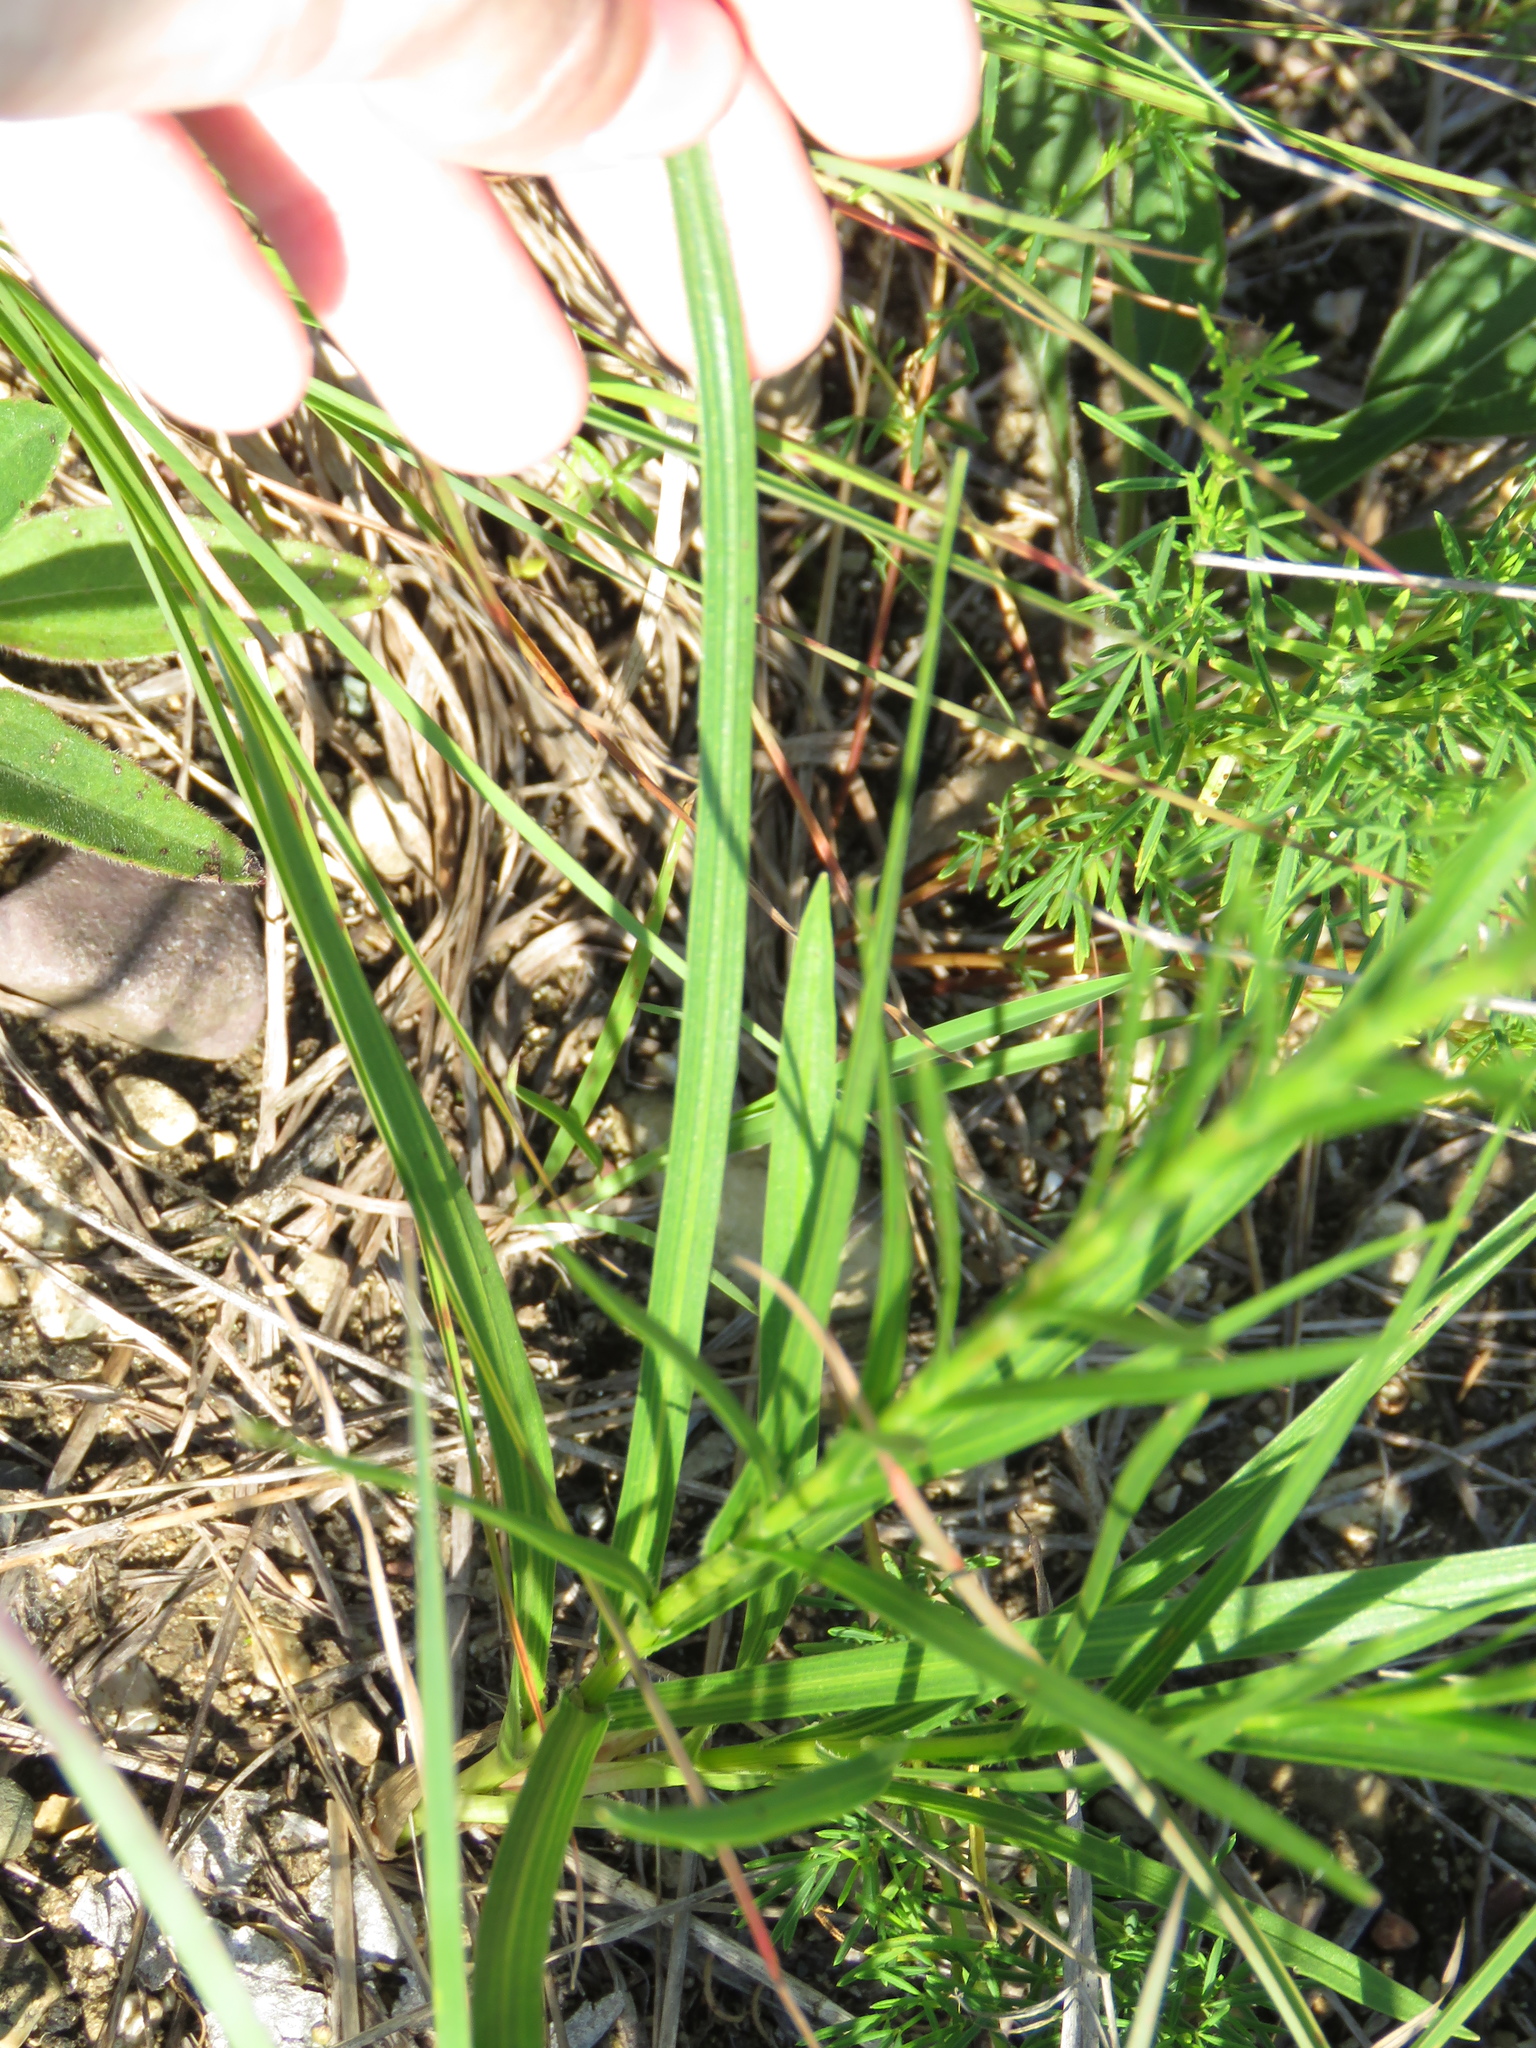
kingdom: Plantae
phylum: Tracheophyta
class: Magnoliopsida
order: Asterales
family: Asteraceae
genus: Liatris
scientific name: Liatris cylindracea
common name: Few-head blazingstar
